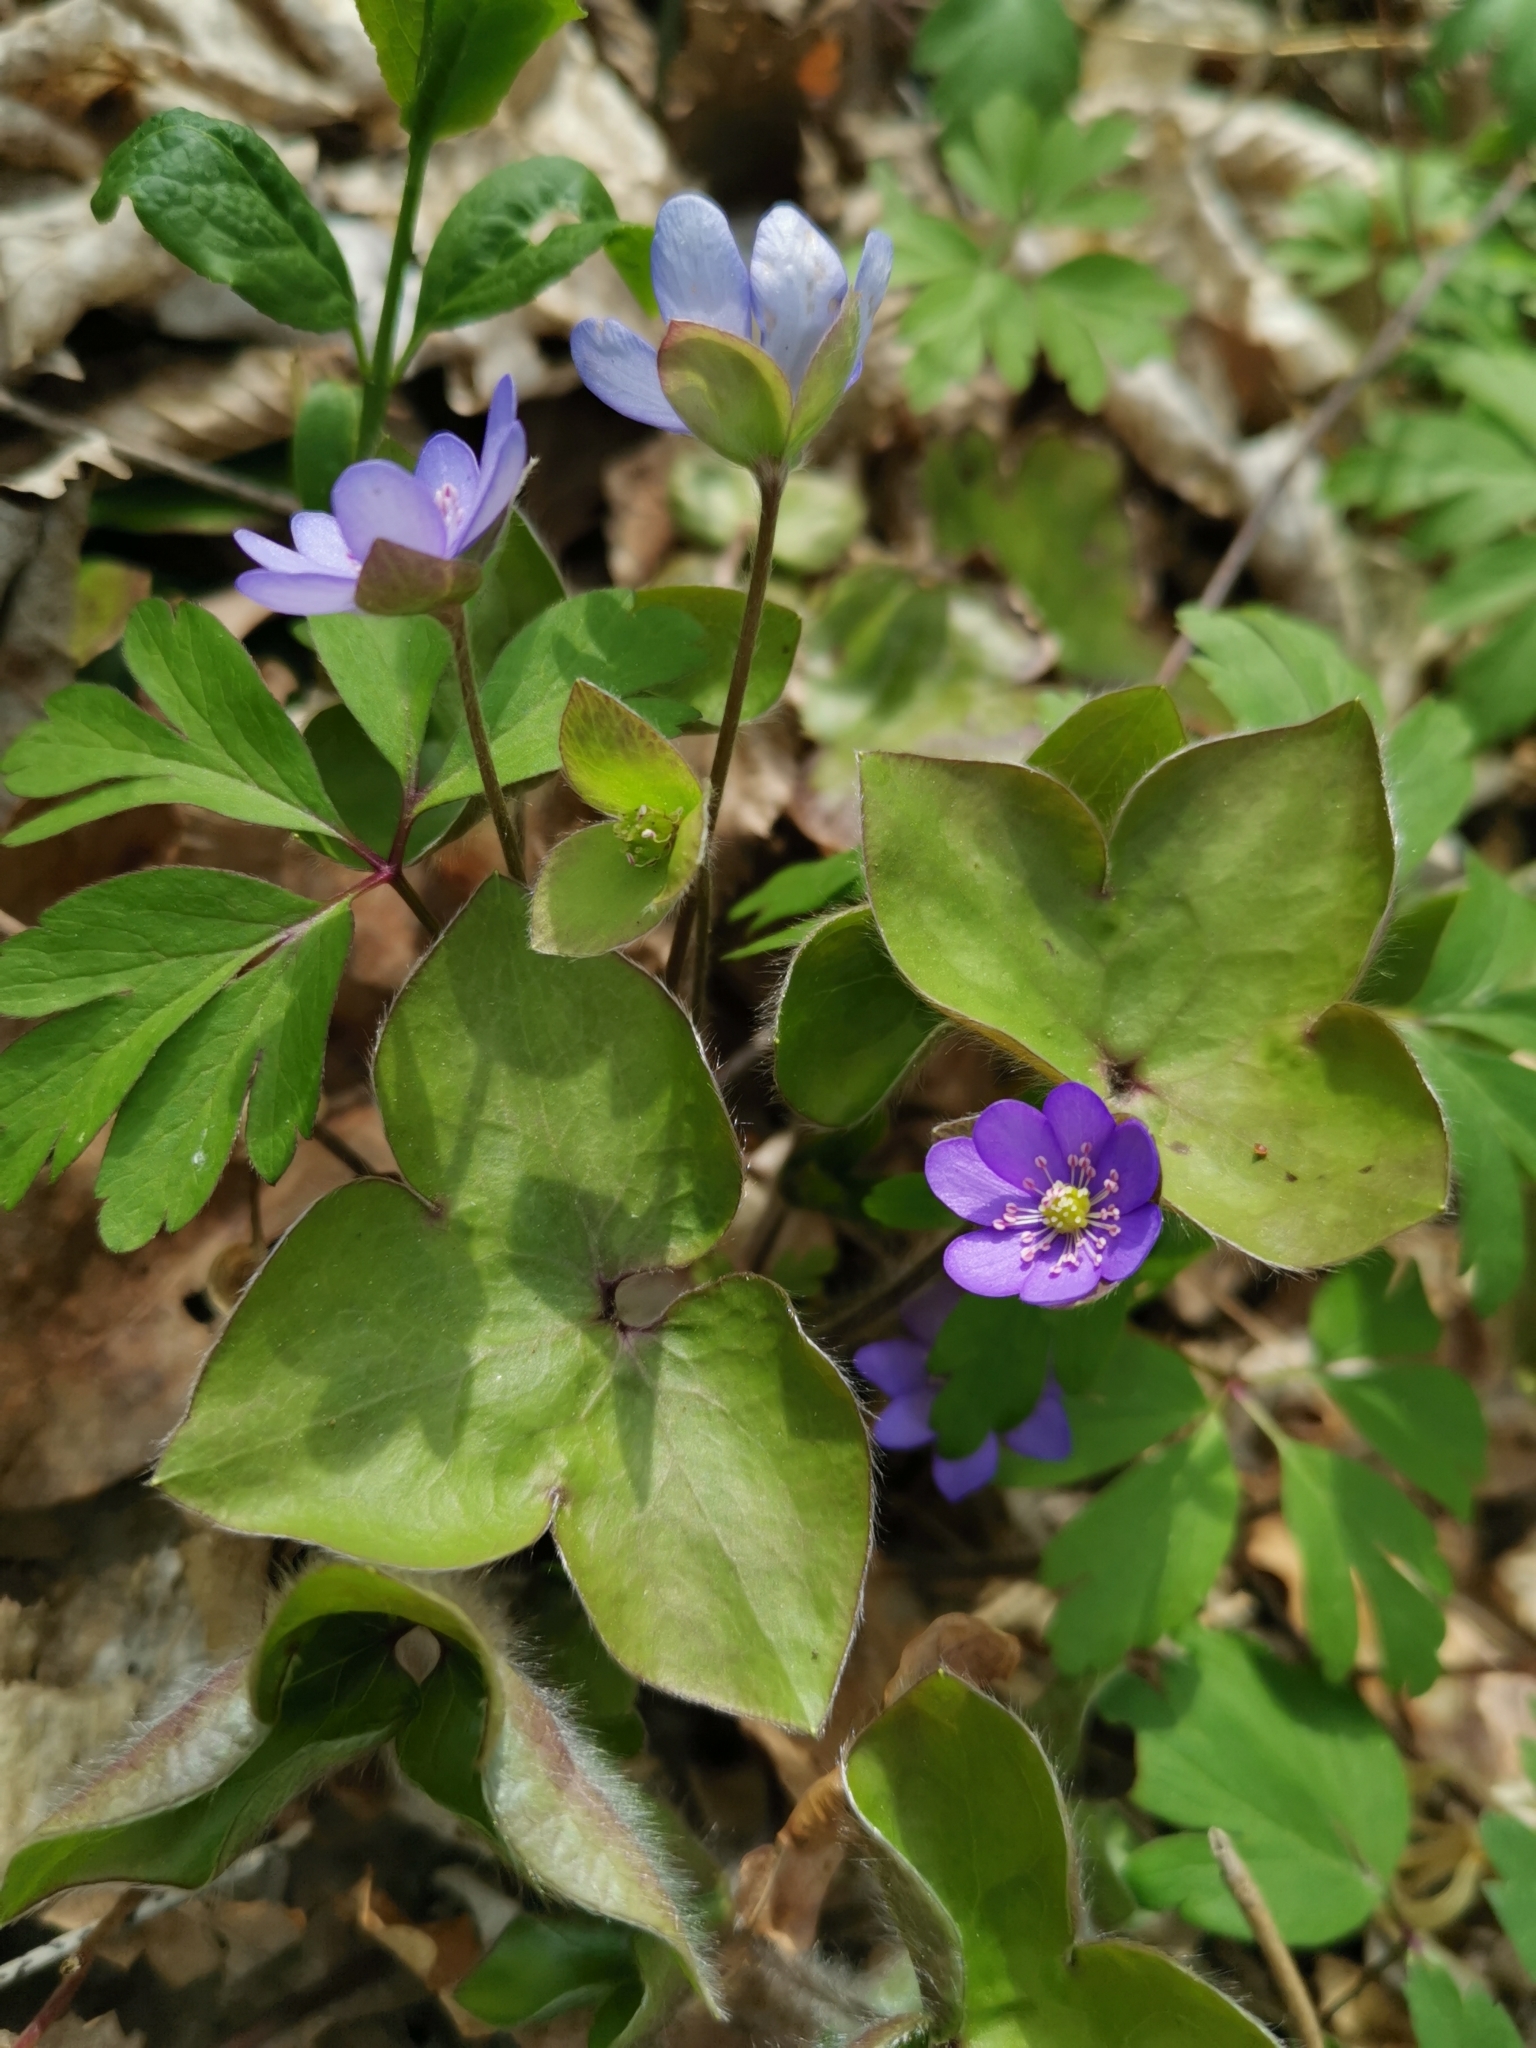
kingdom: Plantae
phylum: Tracheophyta
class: Magnoliopsida
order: Ranunculales
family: Ranunculaceae
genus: Hepatica
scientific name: Hepatica nobilis
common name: Liverleaf
